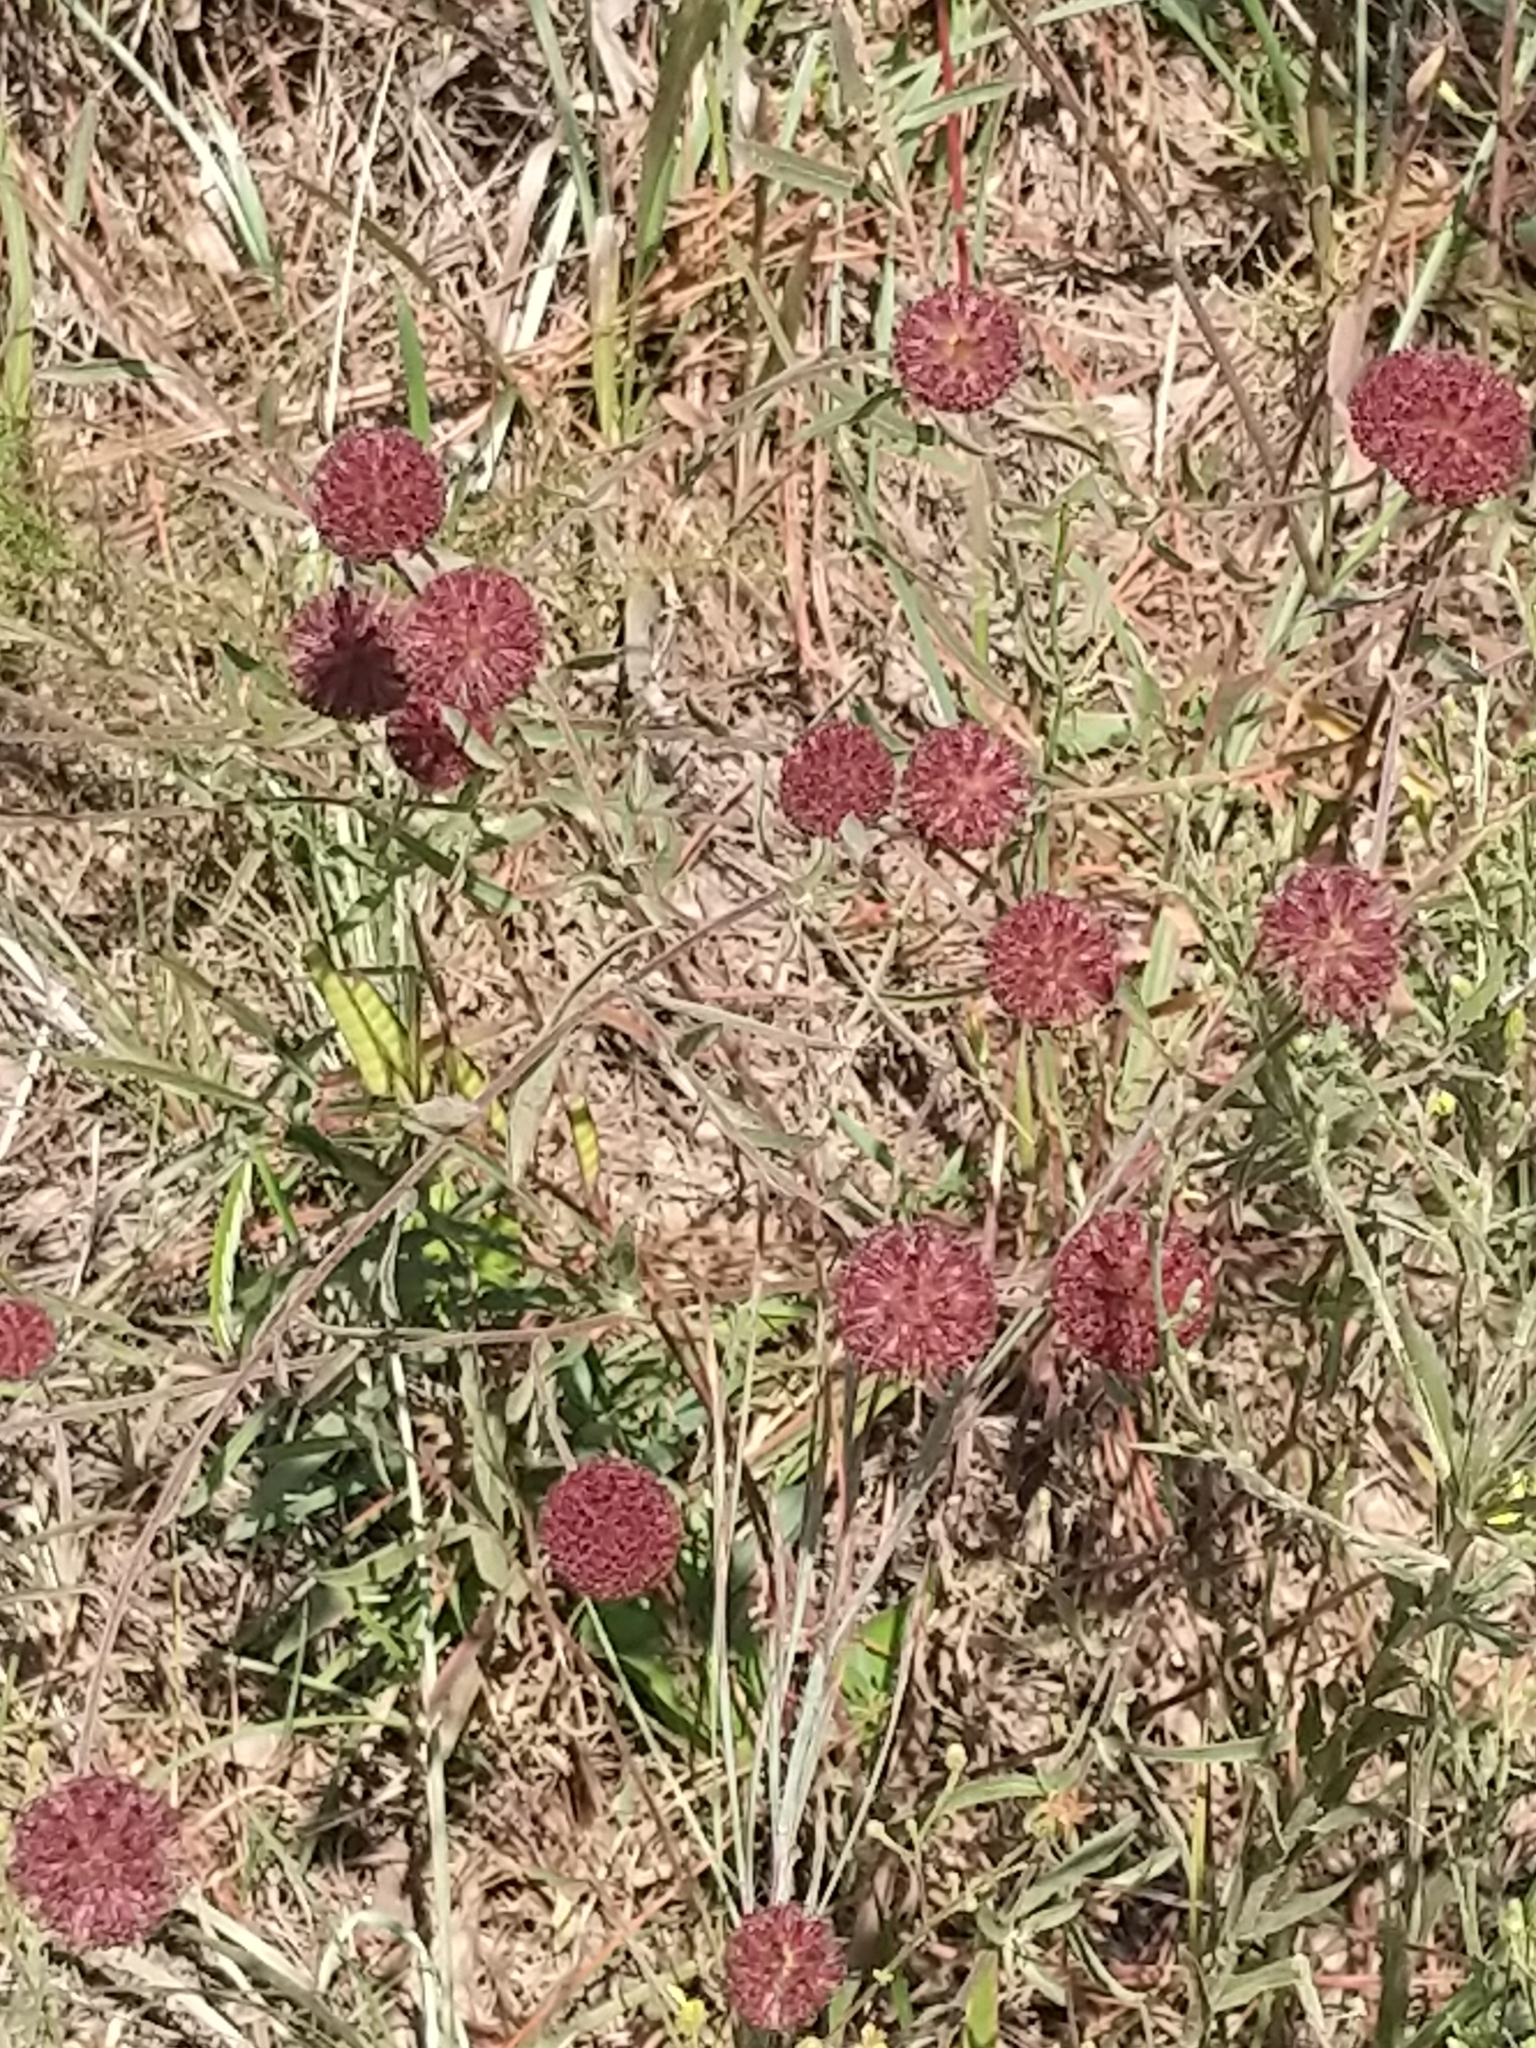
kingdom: Plantae
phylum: Tracheophyta
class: Magnoliopsida
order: Asterales
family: Asteraceae
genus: Gaillardia
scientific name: Gaillardia aestivalis
